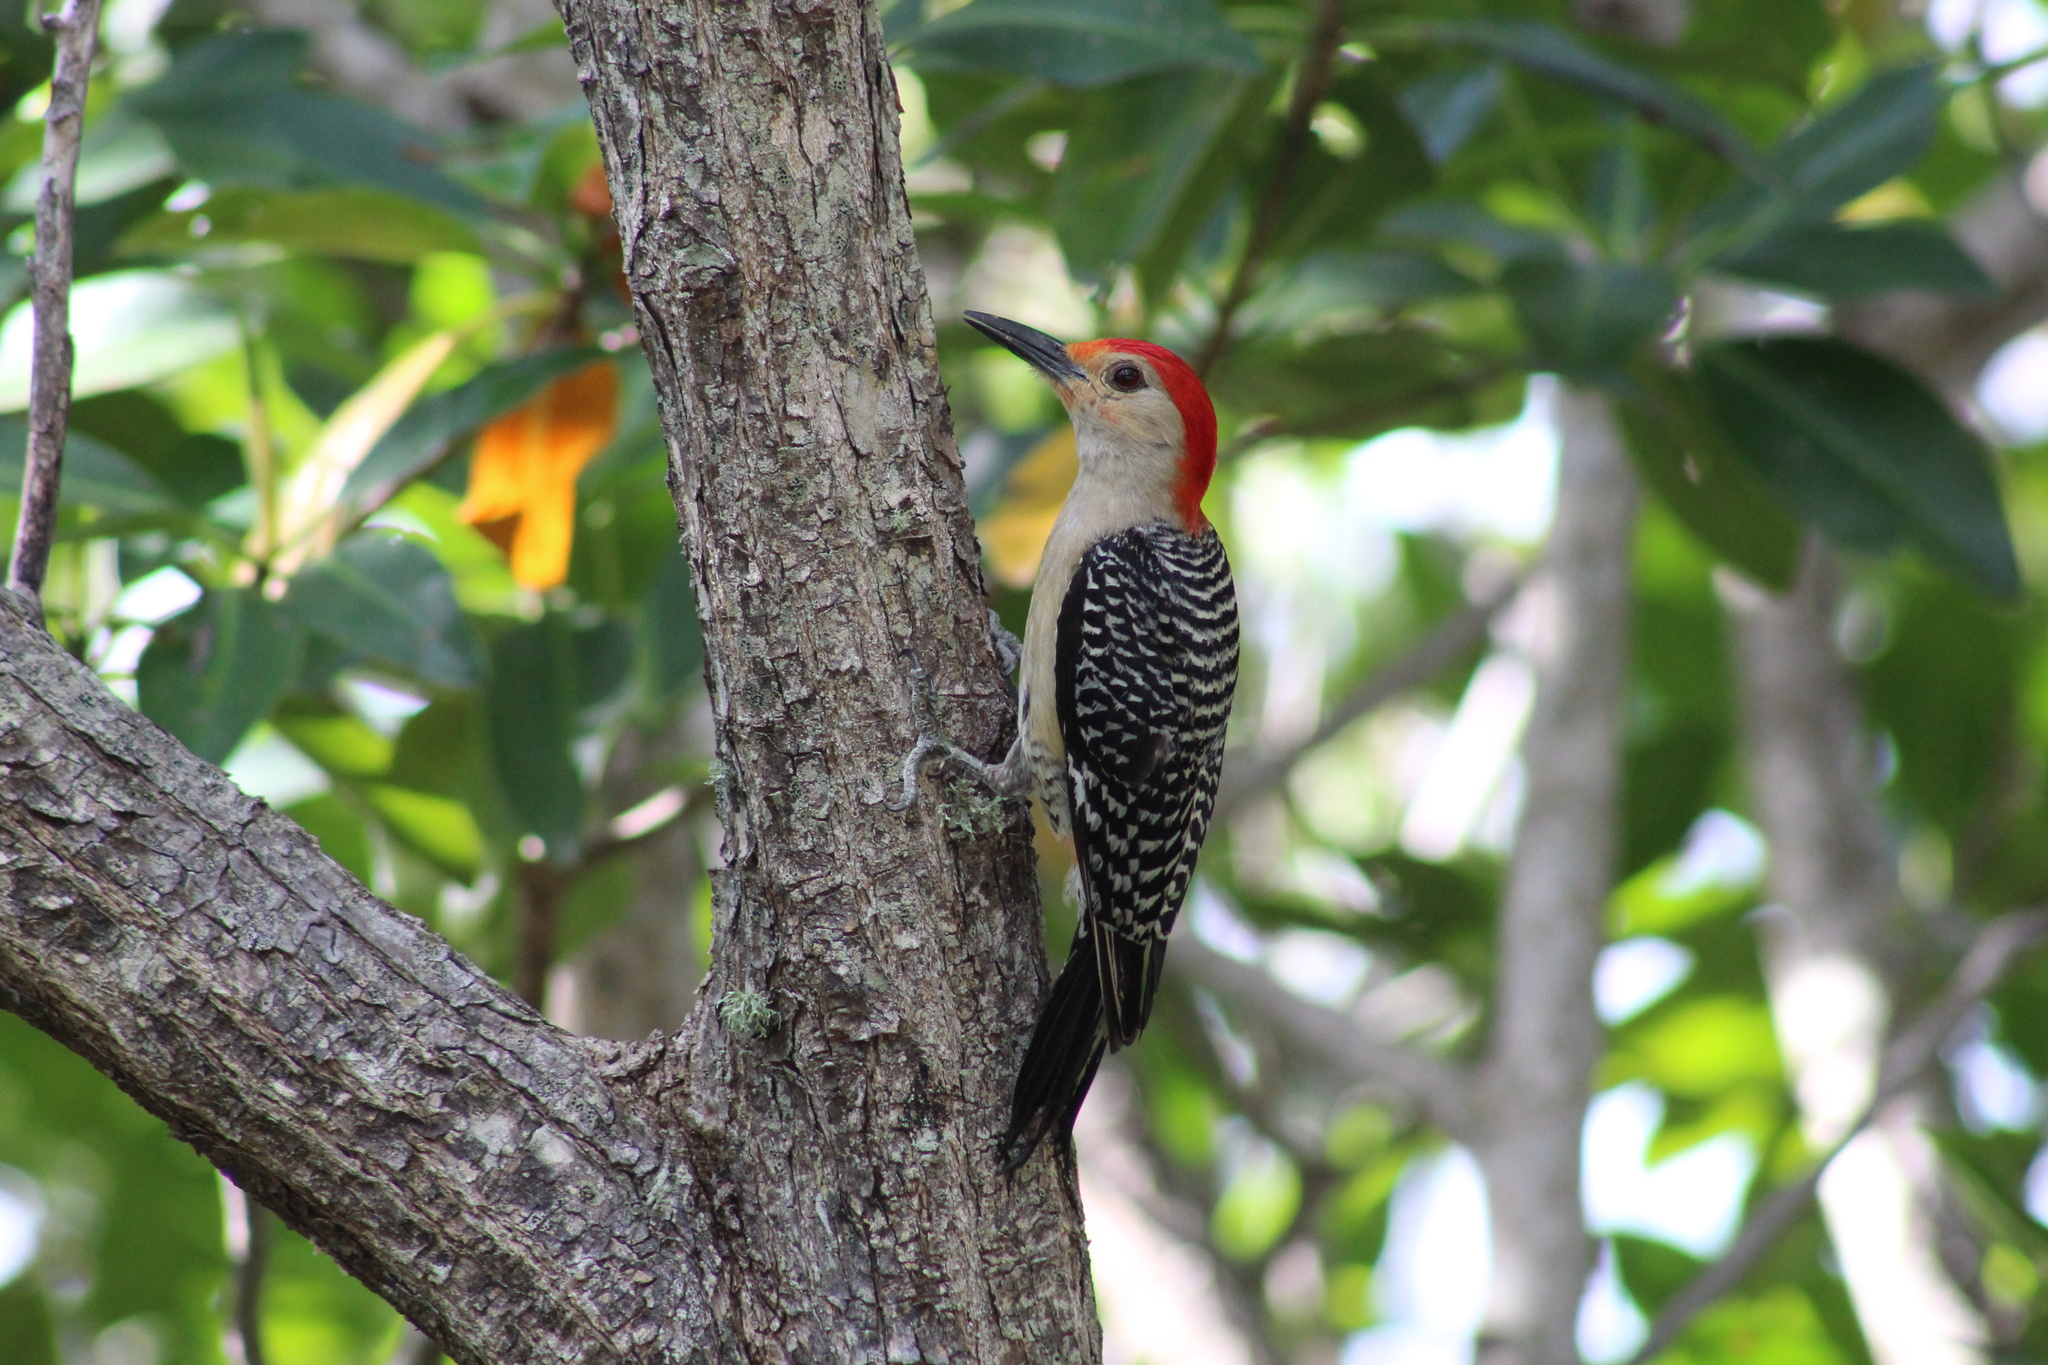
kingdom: Animalia
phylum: Chordata
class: Aves
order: Piciformes
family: Picidae
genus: Melanerpes
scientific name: Melanerpes carolinus
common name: Red-bellied woodpecker
